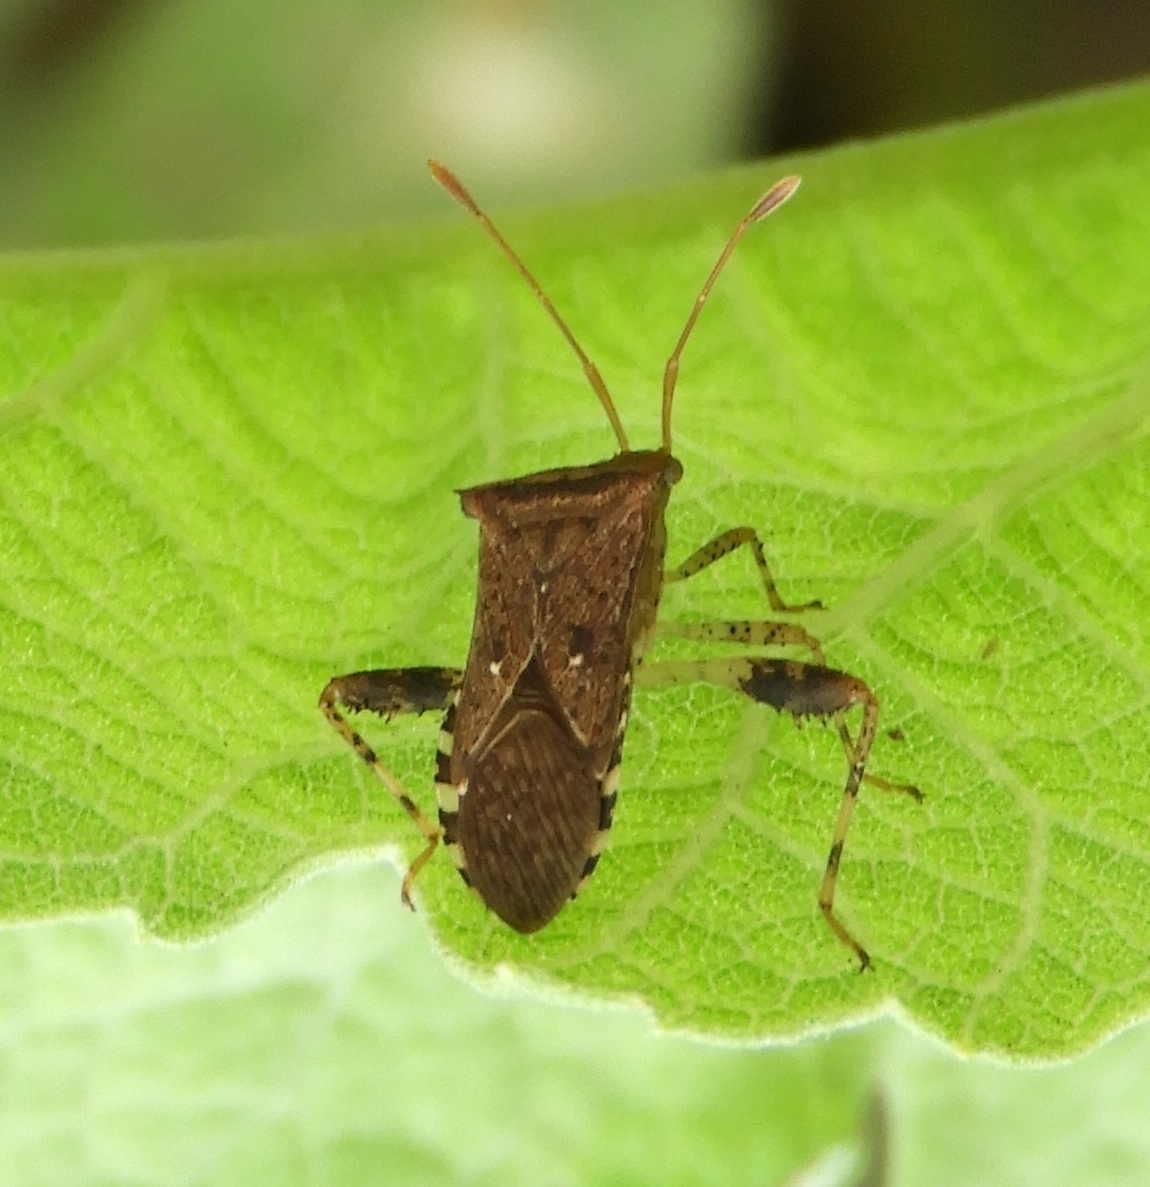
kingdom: Animalia
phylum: Arthropoda
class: Insecta
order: Hemiptera
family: Coreidae
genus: Zicca
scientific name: Zicca taeniola
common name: Leaf-footed bug
